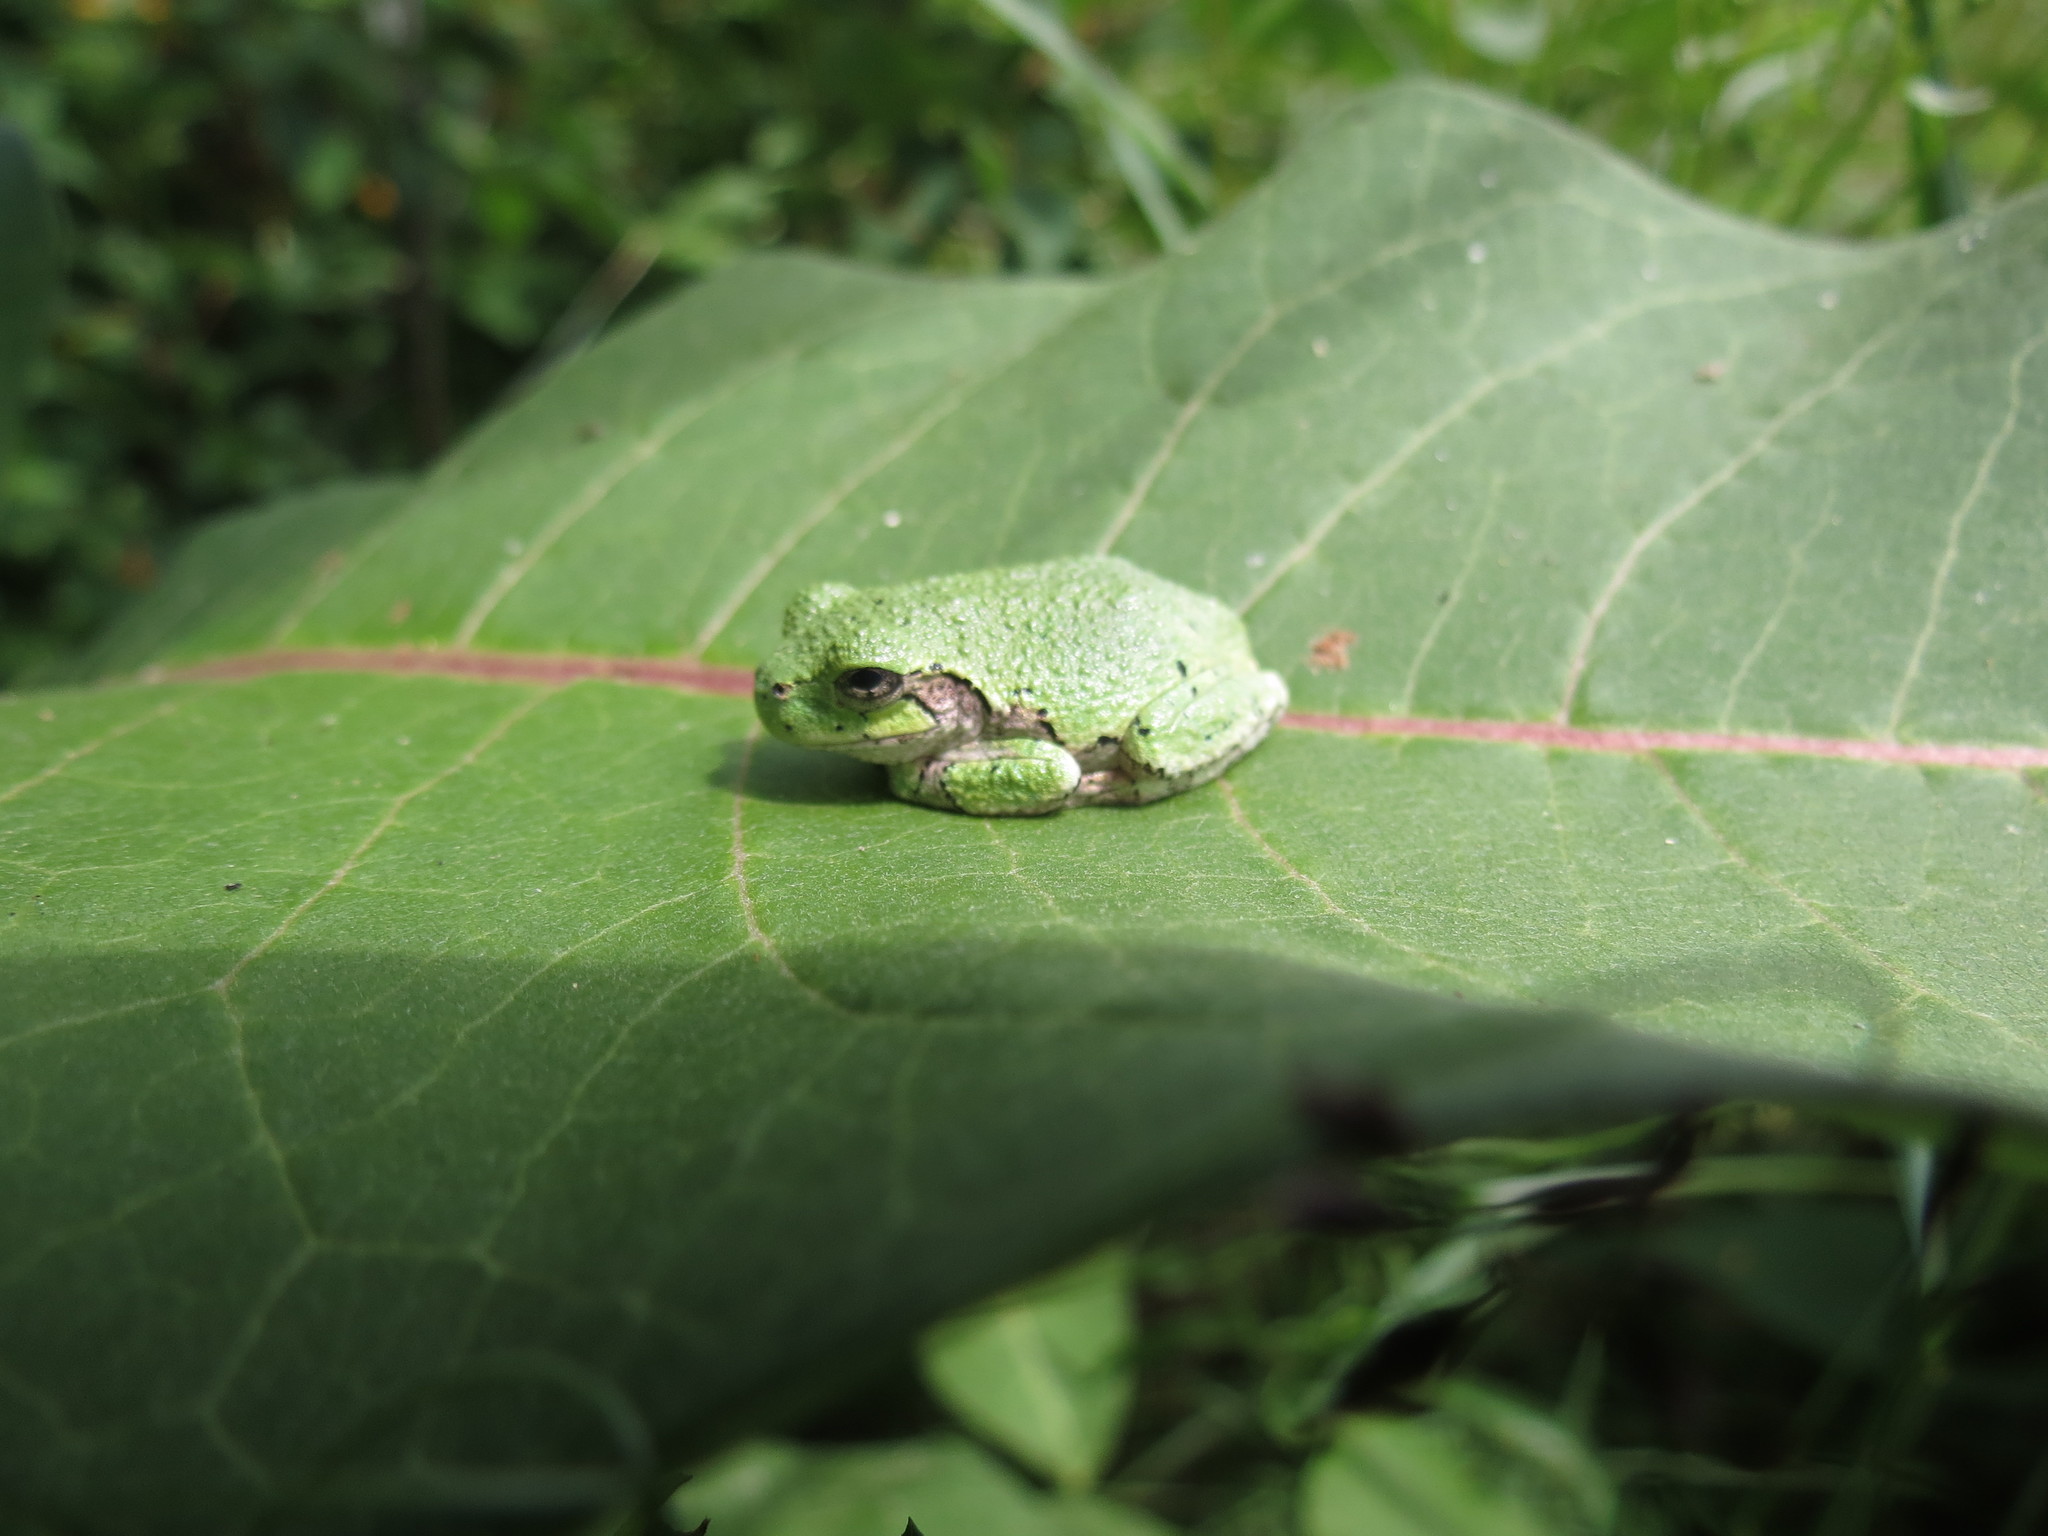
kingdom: Animalia
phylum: Chordata
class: Amphibia
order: Anura
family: Hylidae
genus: Dryophytes
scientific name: Dryophytes versicolor
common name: Gray treefrog
